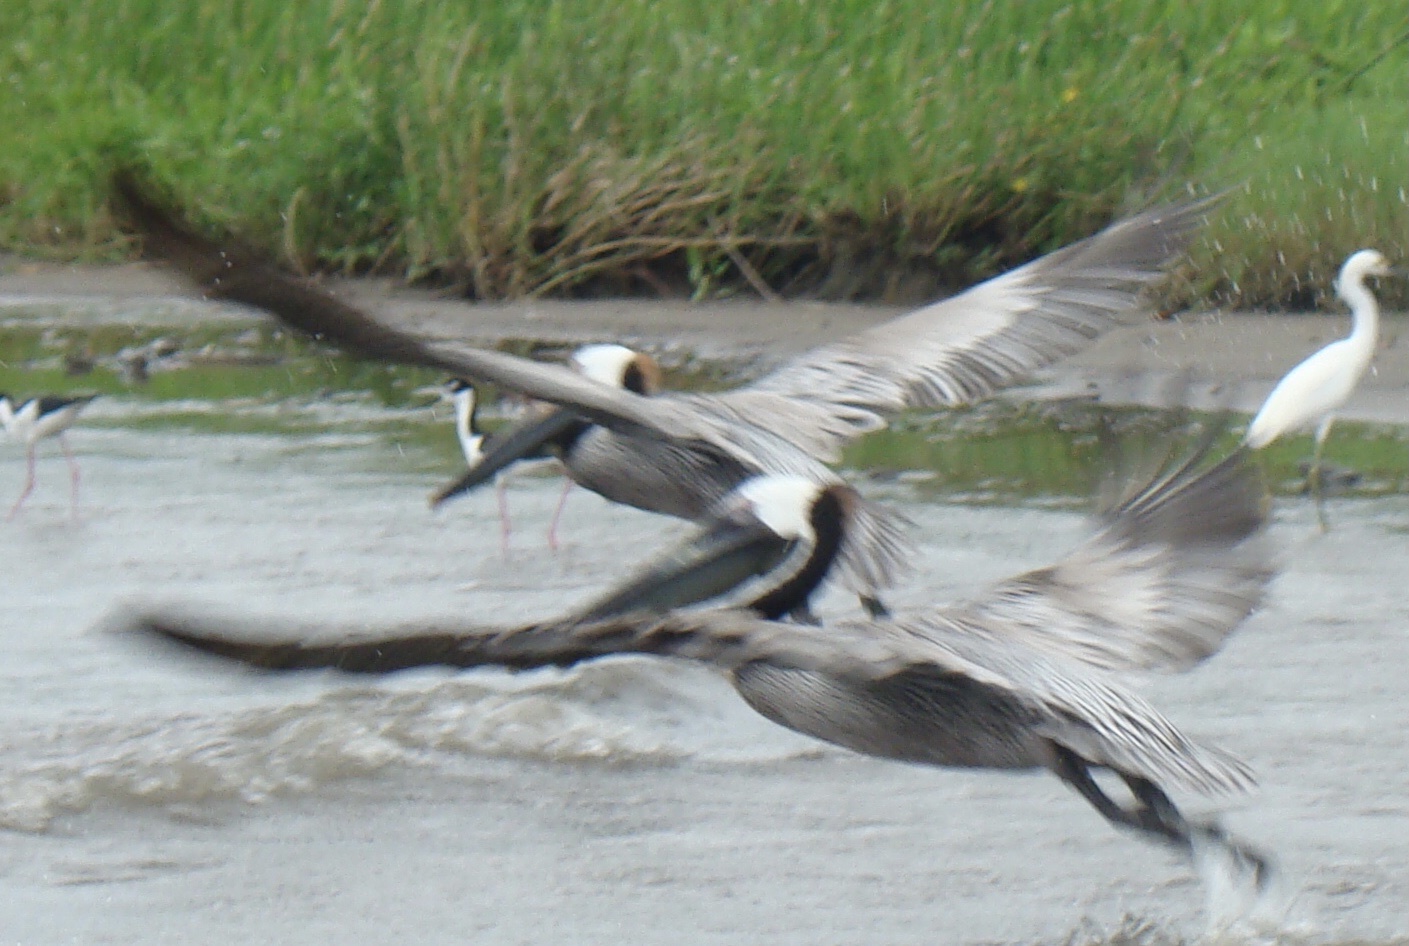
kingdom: Animalia
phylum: Chordata
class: Aves
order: Pelecaniformes
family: Pelecanidae
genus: Pelecanus
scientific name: Pelecanus occidentalis
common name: Brown pelican
